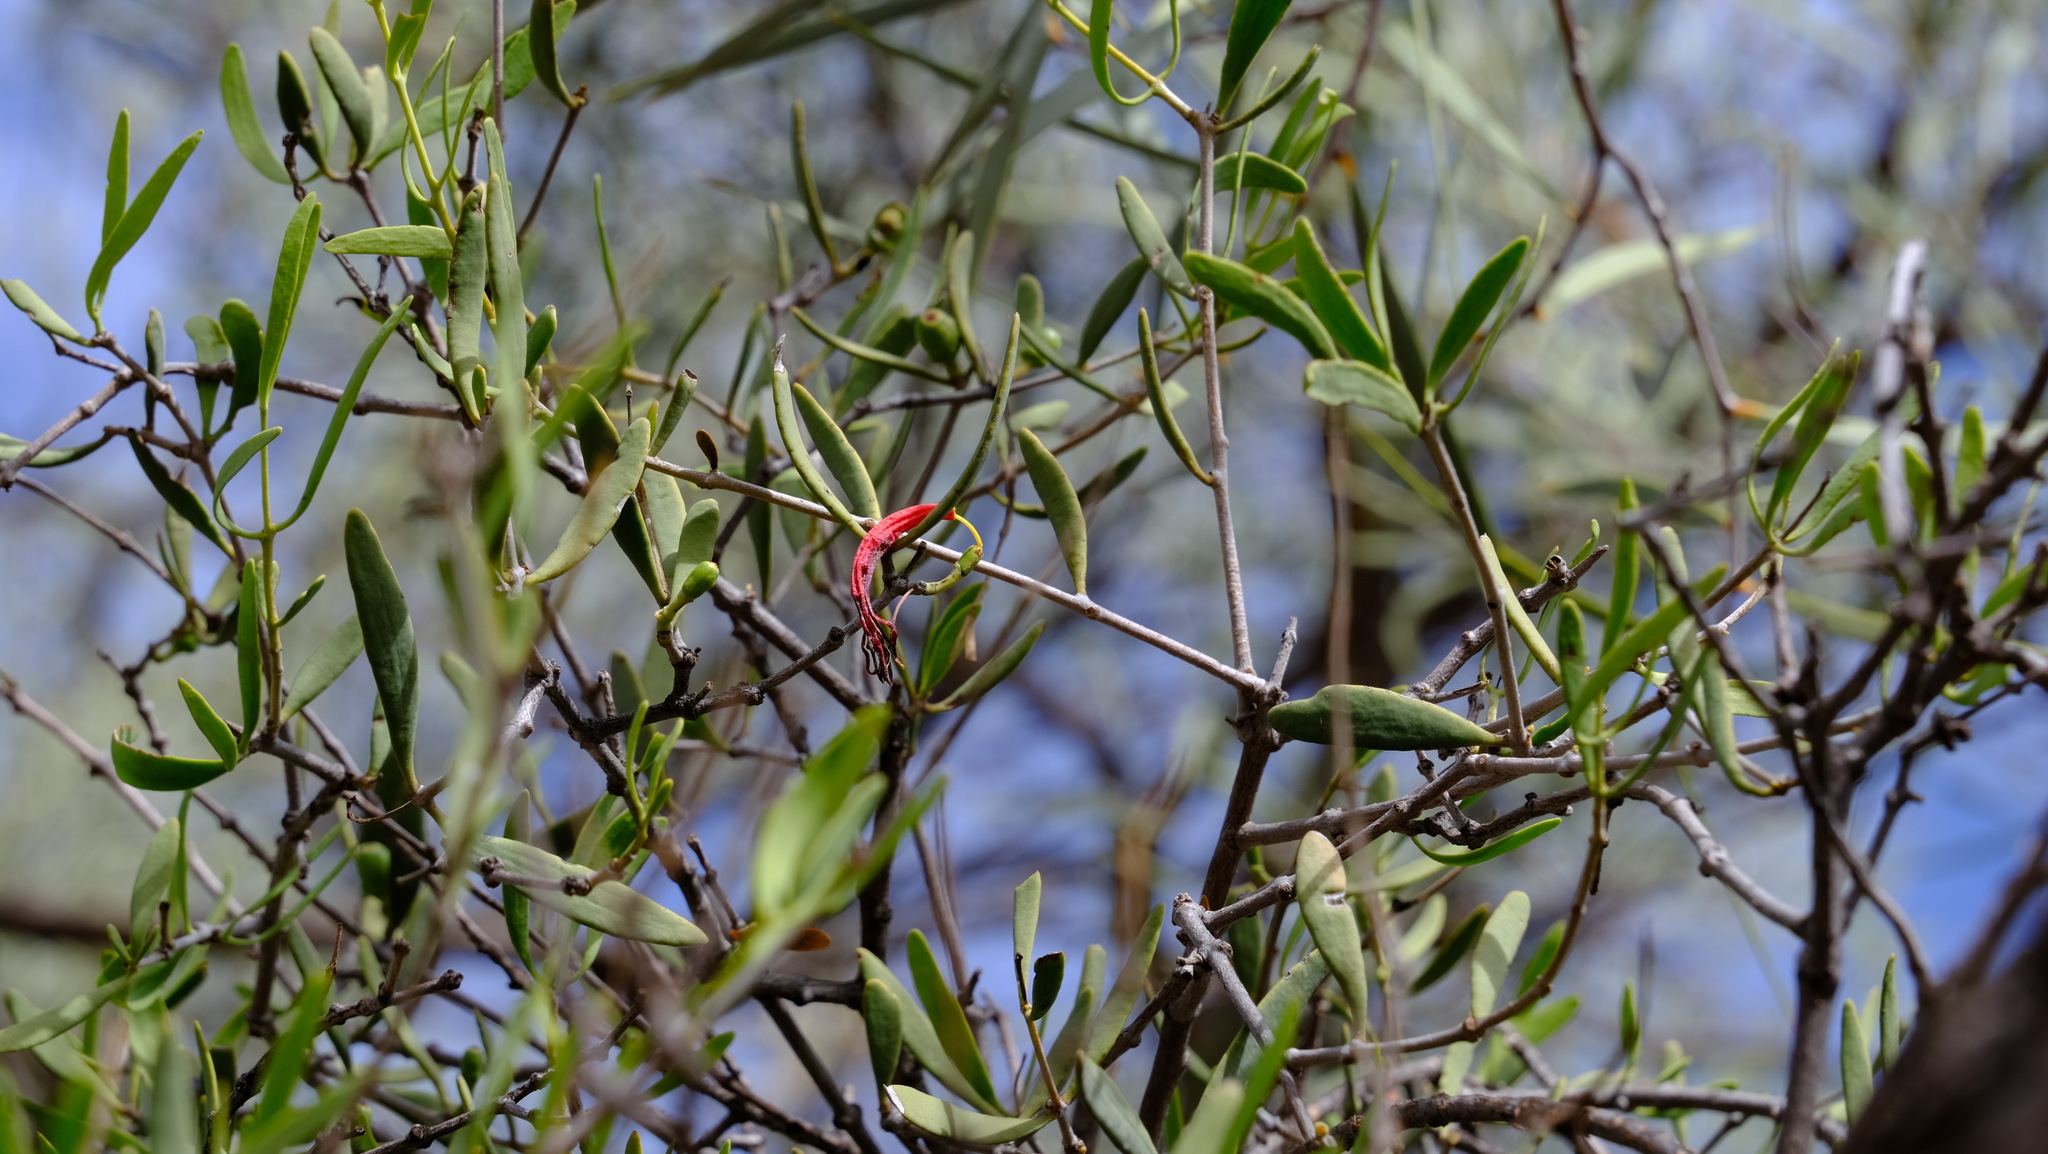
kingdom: Plantae
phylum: Tracheophyta
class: Magnoliopsida
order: Santalales
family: Loranthaceae
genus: Lysiana
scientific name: Lysiana exocarpi
